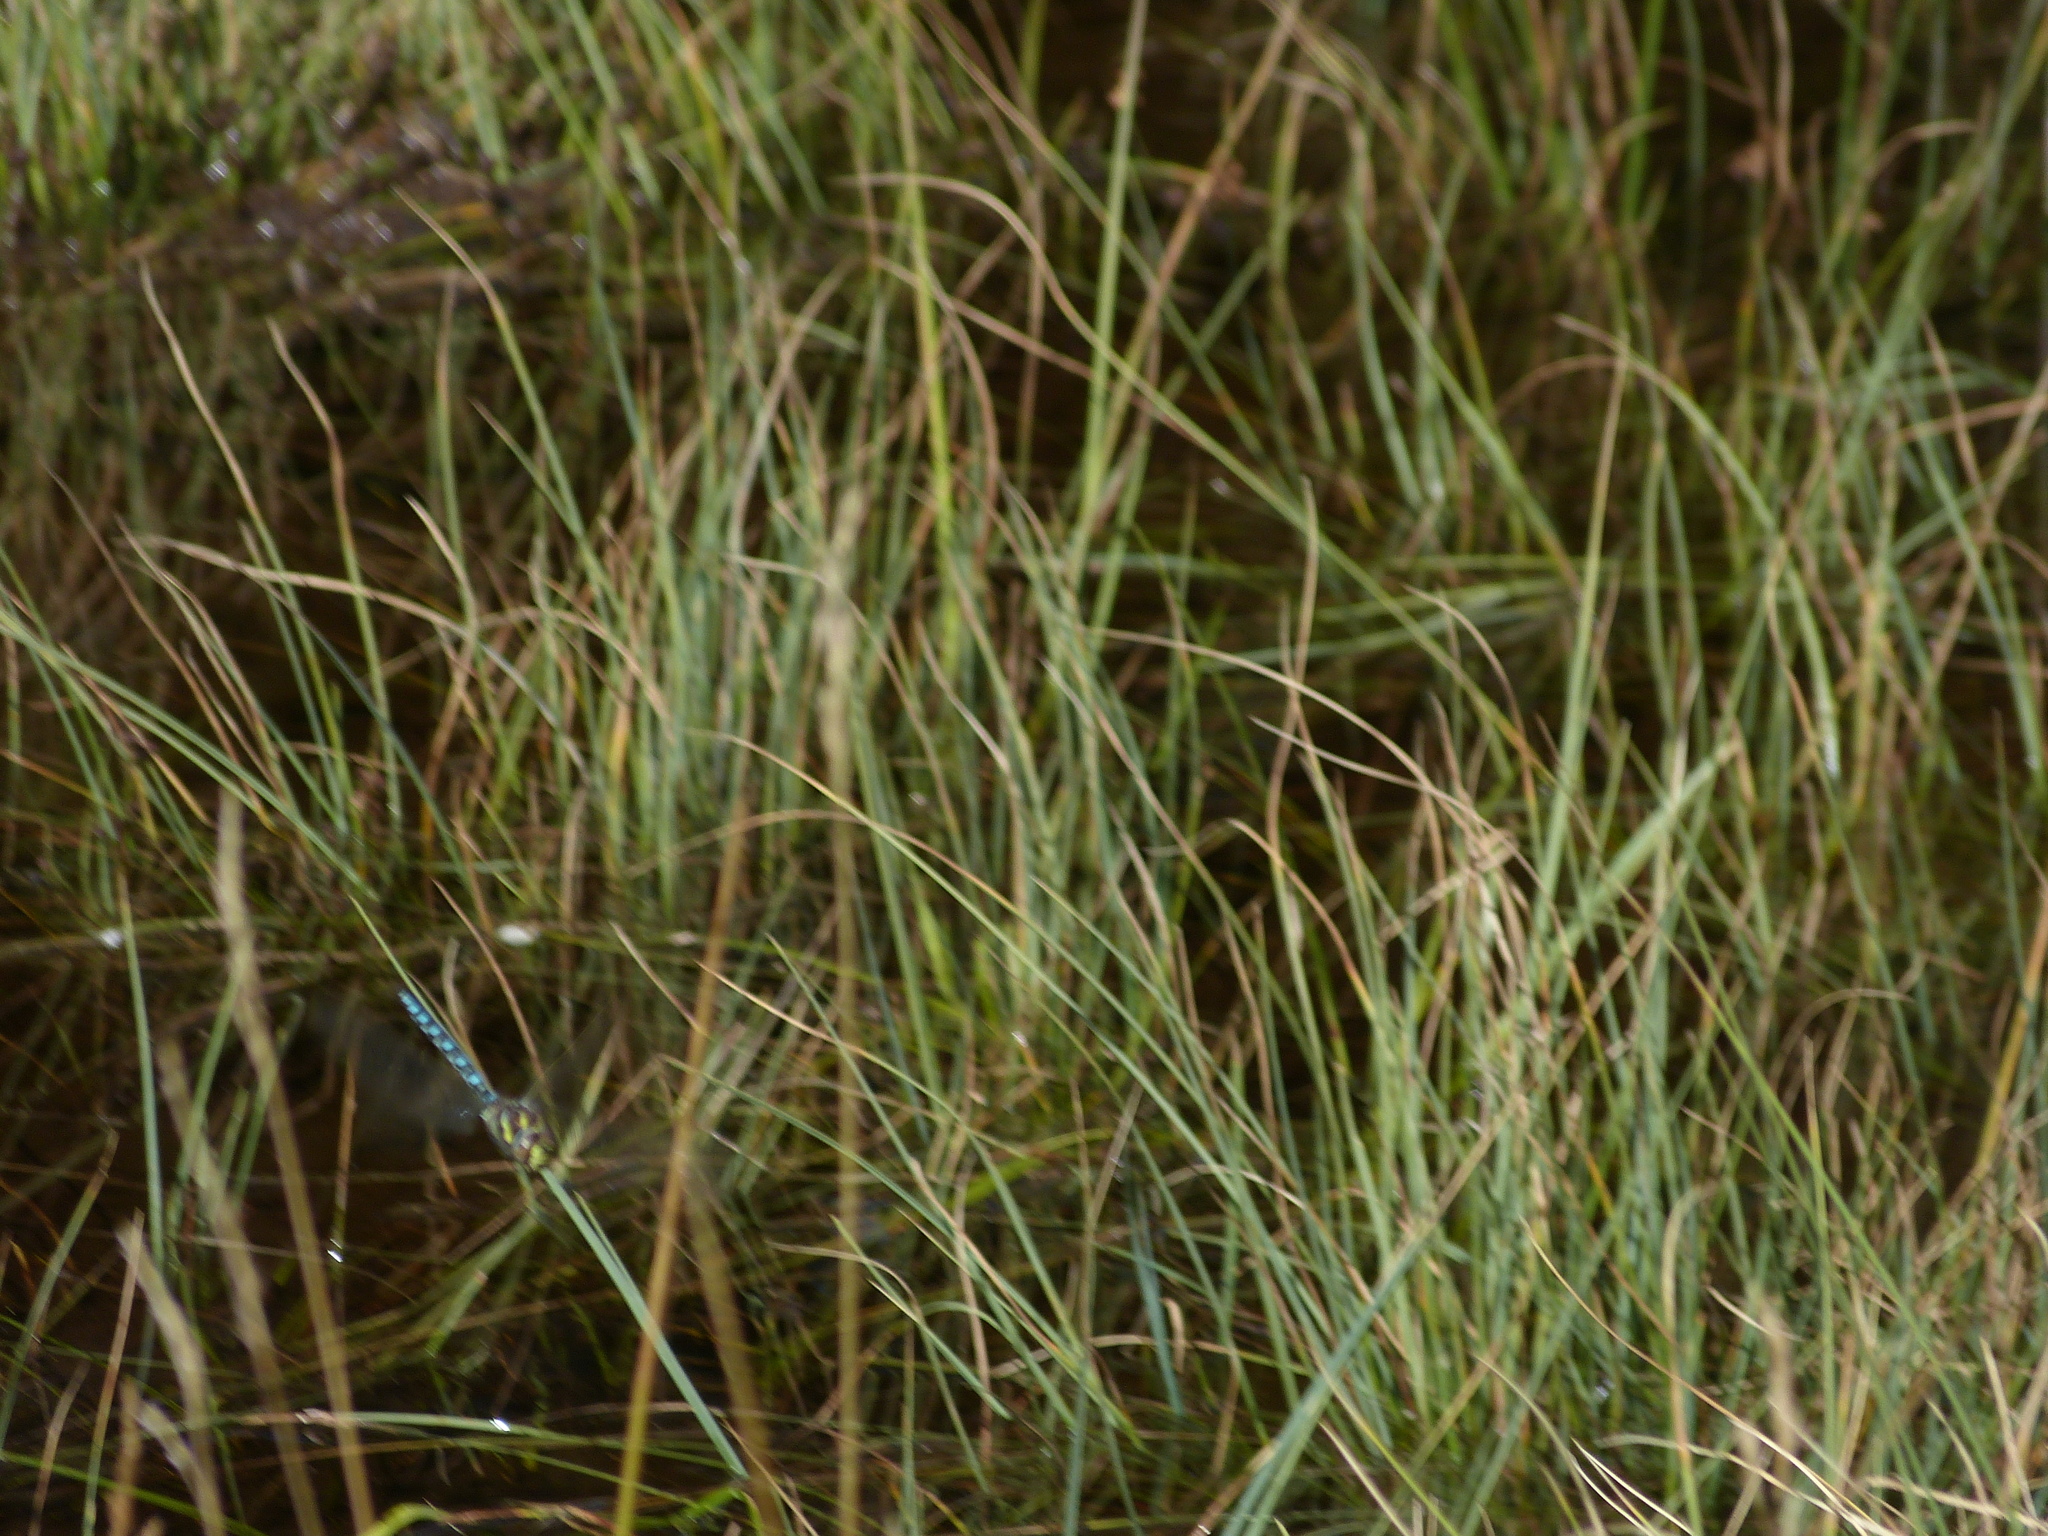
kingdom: Animalia
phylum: Arthropoda
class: Insecta
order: Odonata
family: Aeshnidae
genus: Aeshna
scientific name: Aeshna juncea
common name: Moorland hawker
